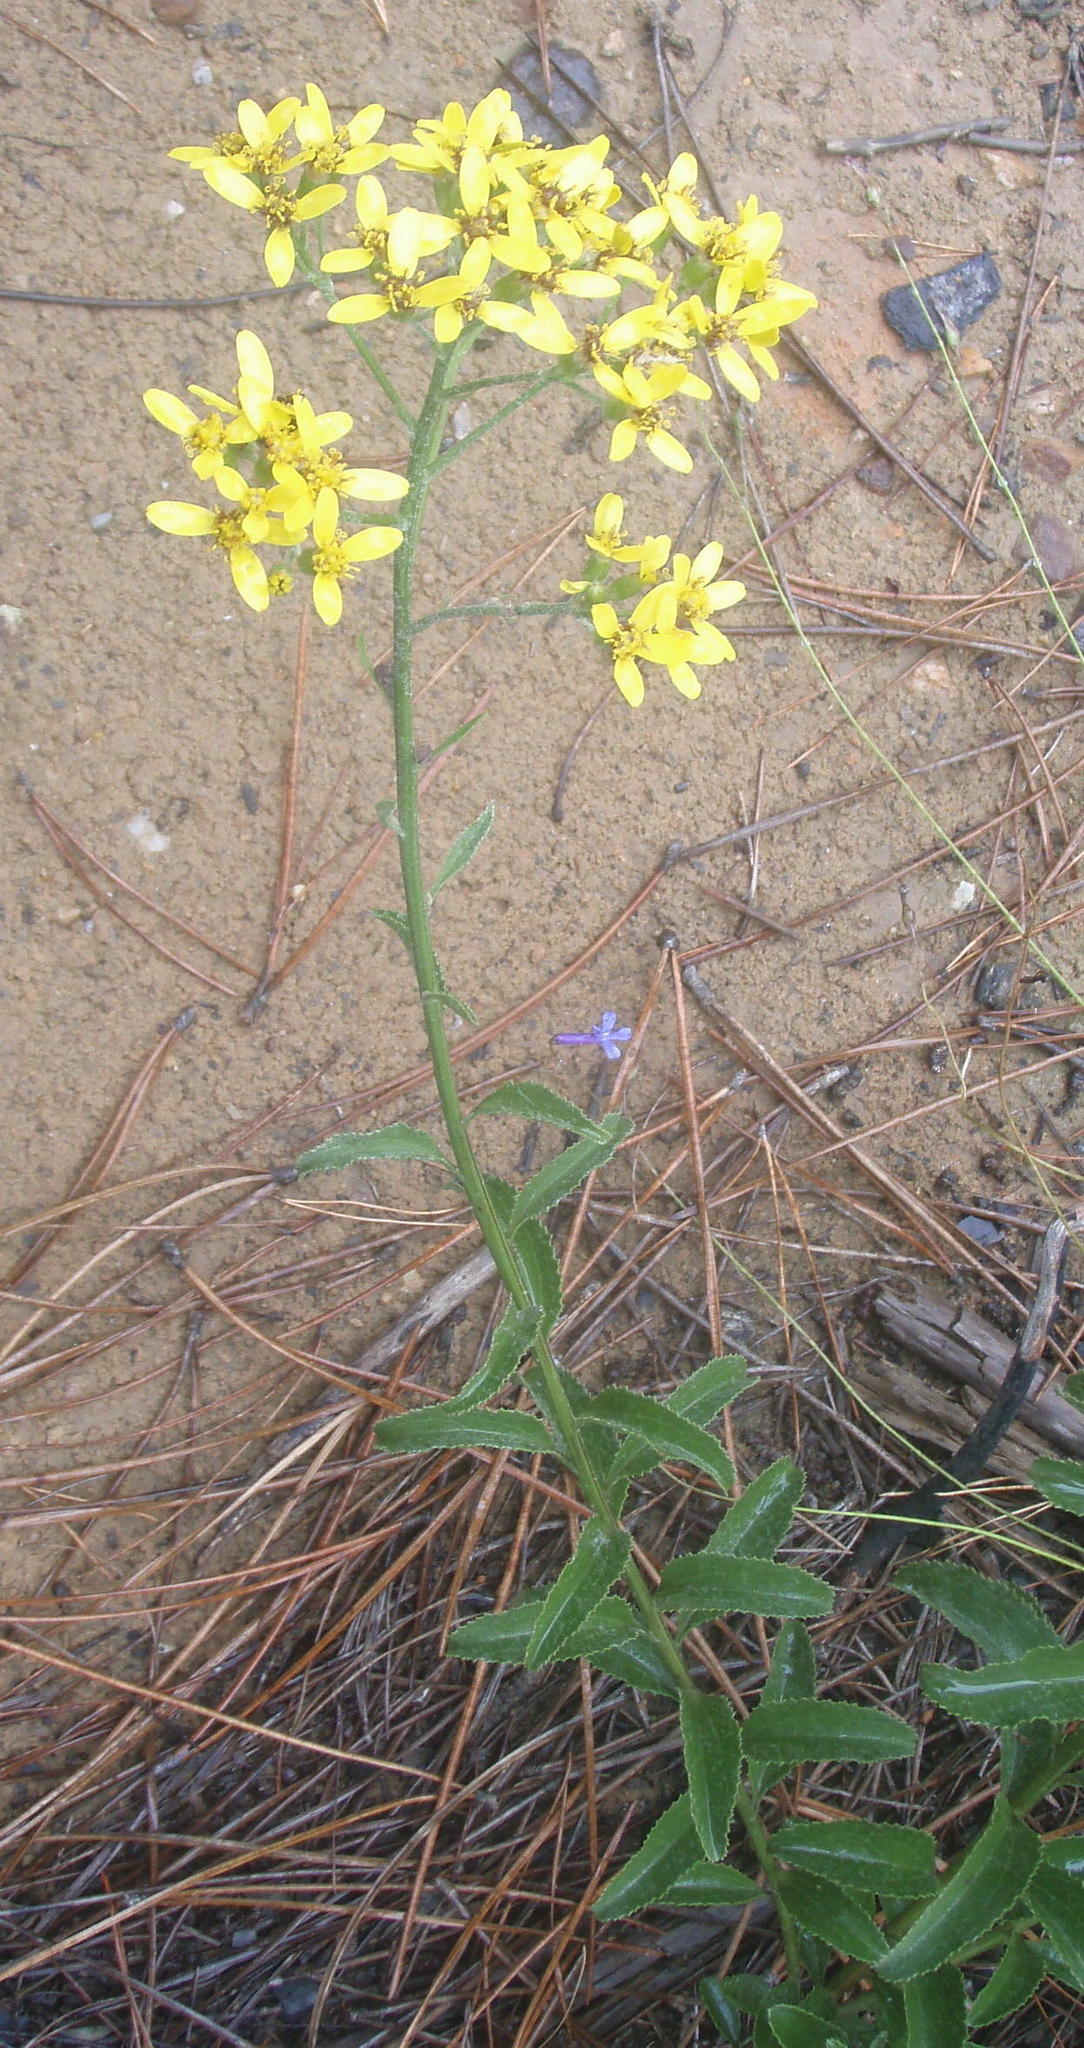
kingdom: Plantae
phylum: Tracheophyta
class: Magnoliopsida
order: Asterales
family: Asteraceae
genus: Senecio
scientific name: Senecio crenatus
